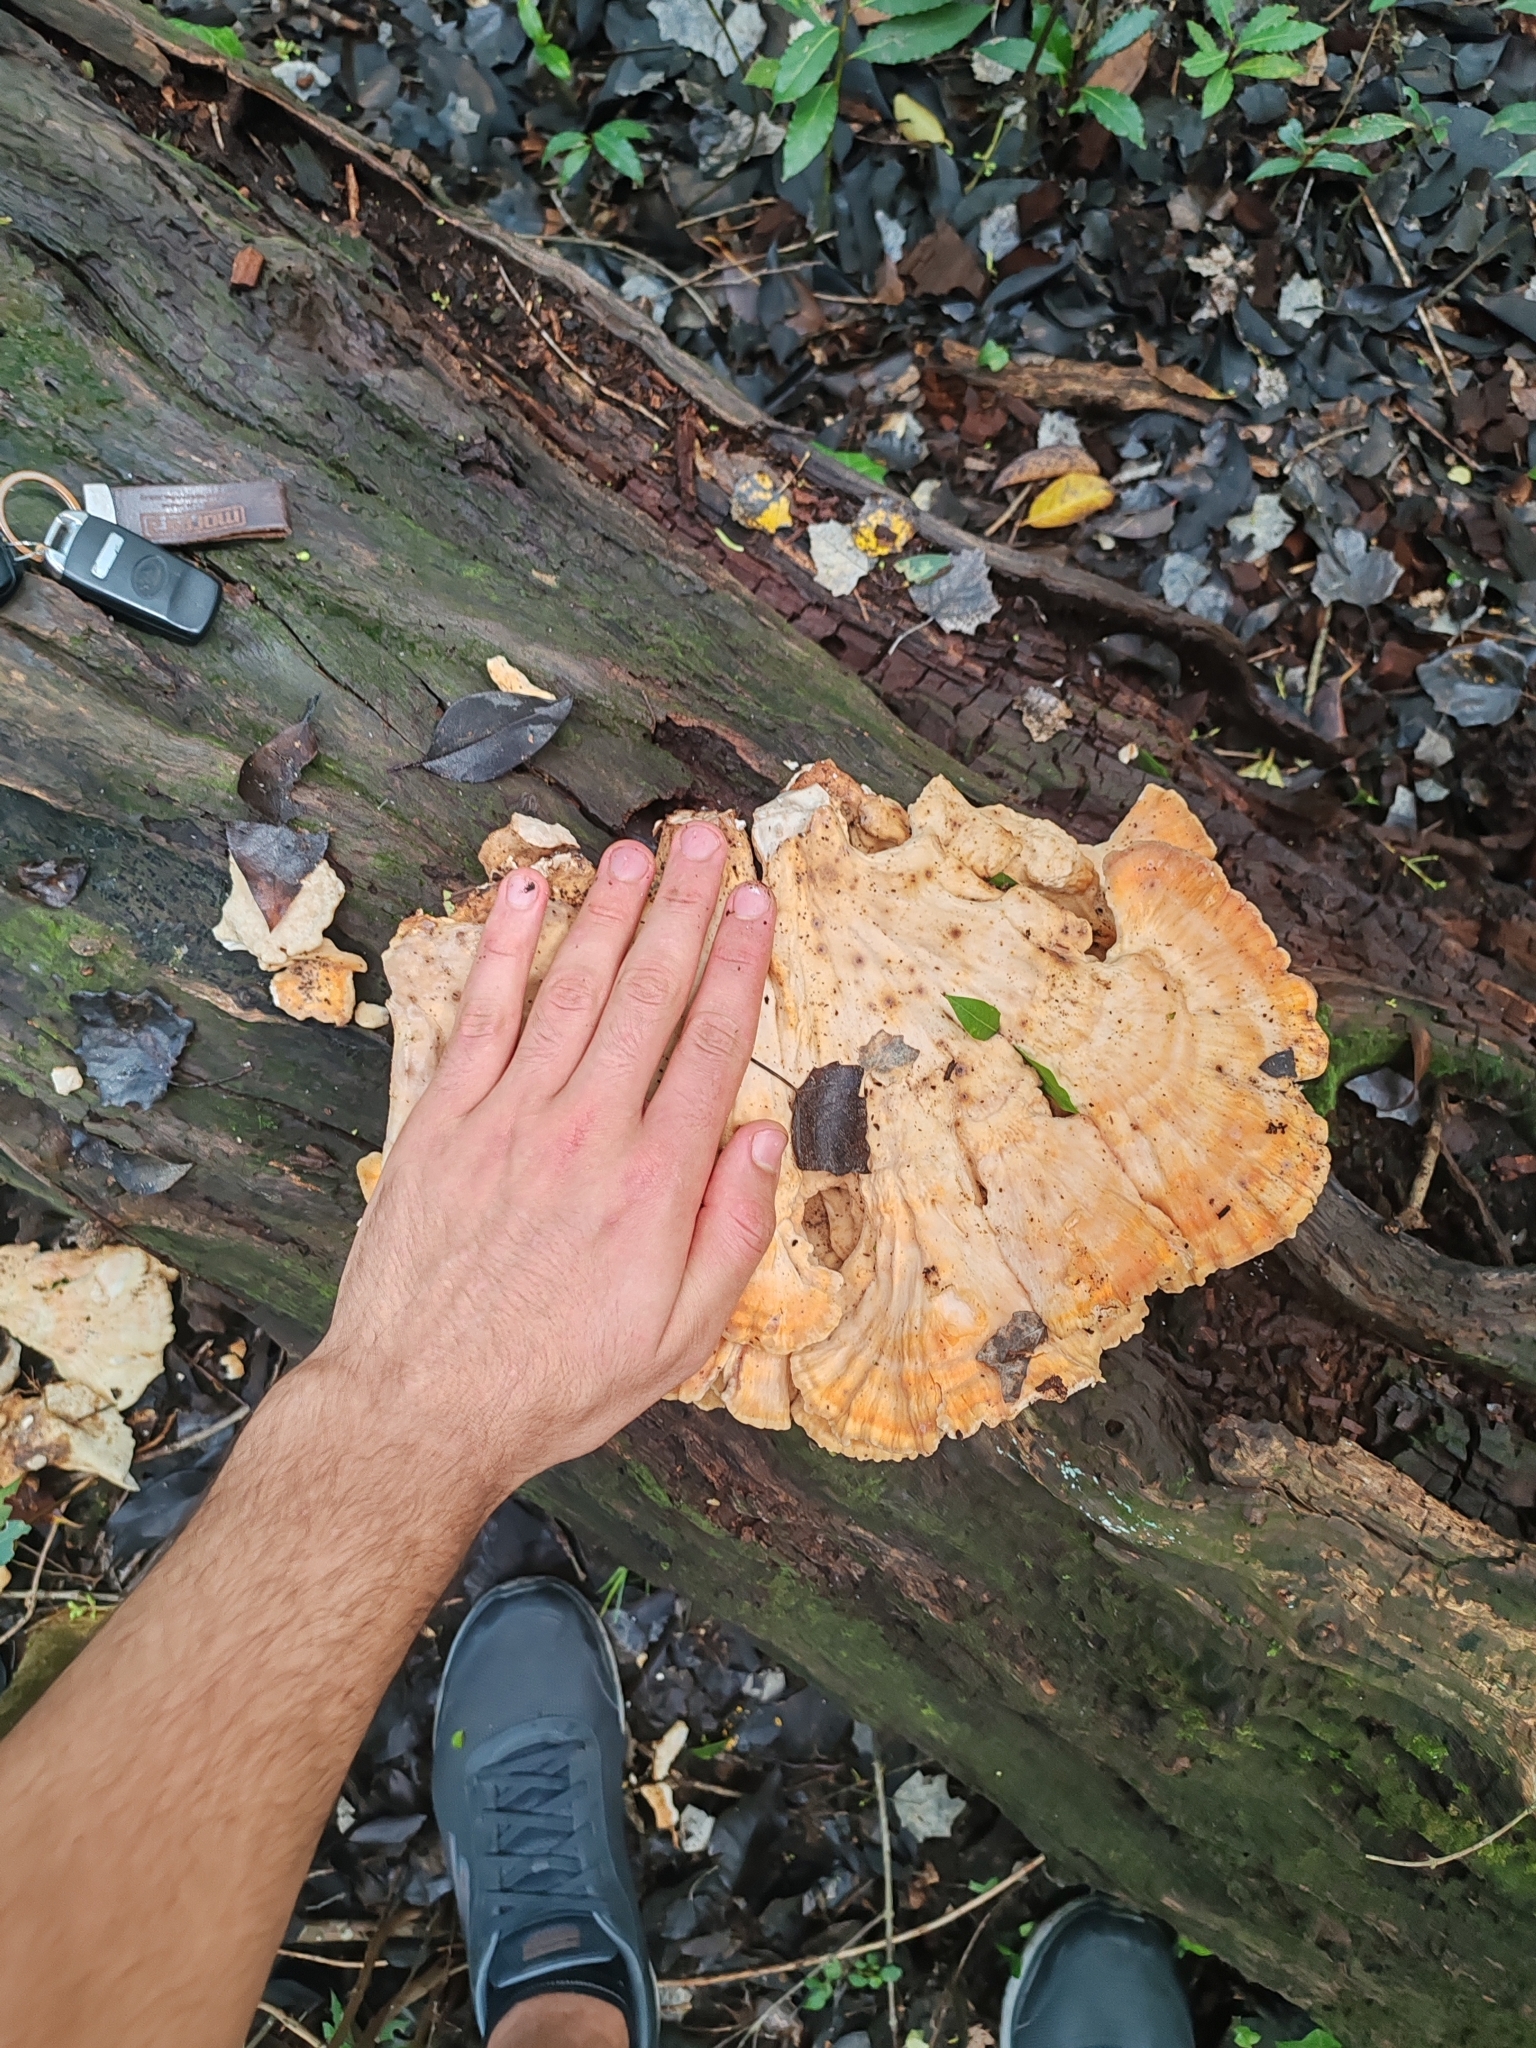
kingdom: Fungi
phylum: Basidiomycota
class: Agaricomycetes
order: Polyporales
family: Laetiporaceae
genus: Laetiporus
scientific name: Laetiporus sulphureus
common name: Chicken of the woods
